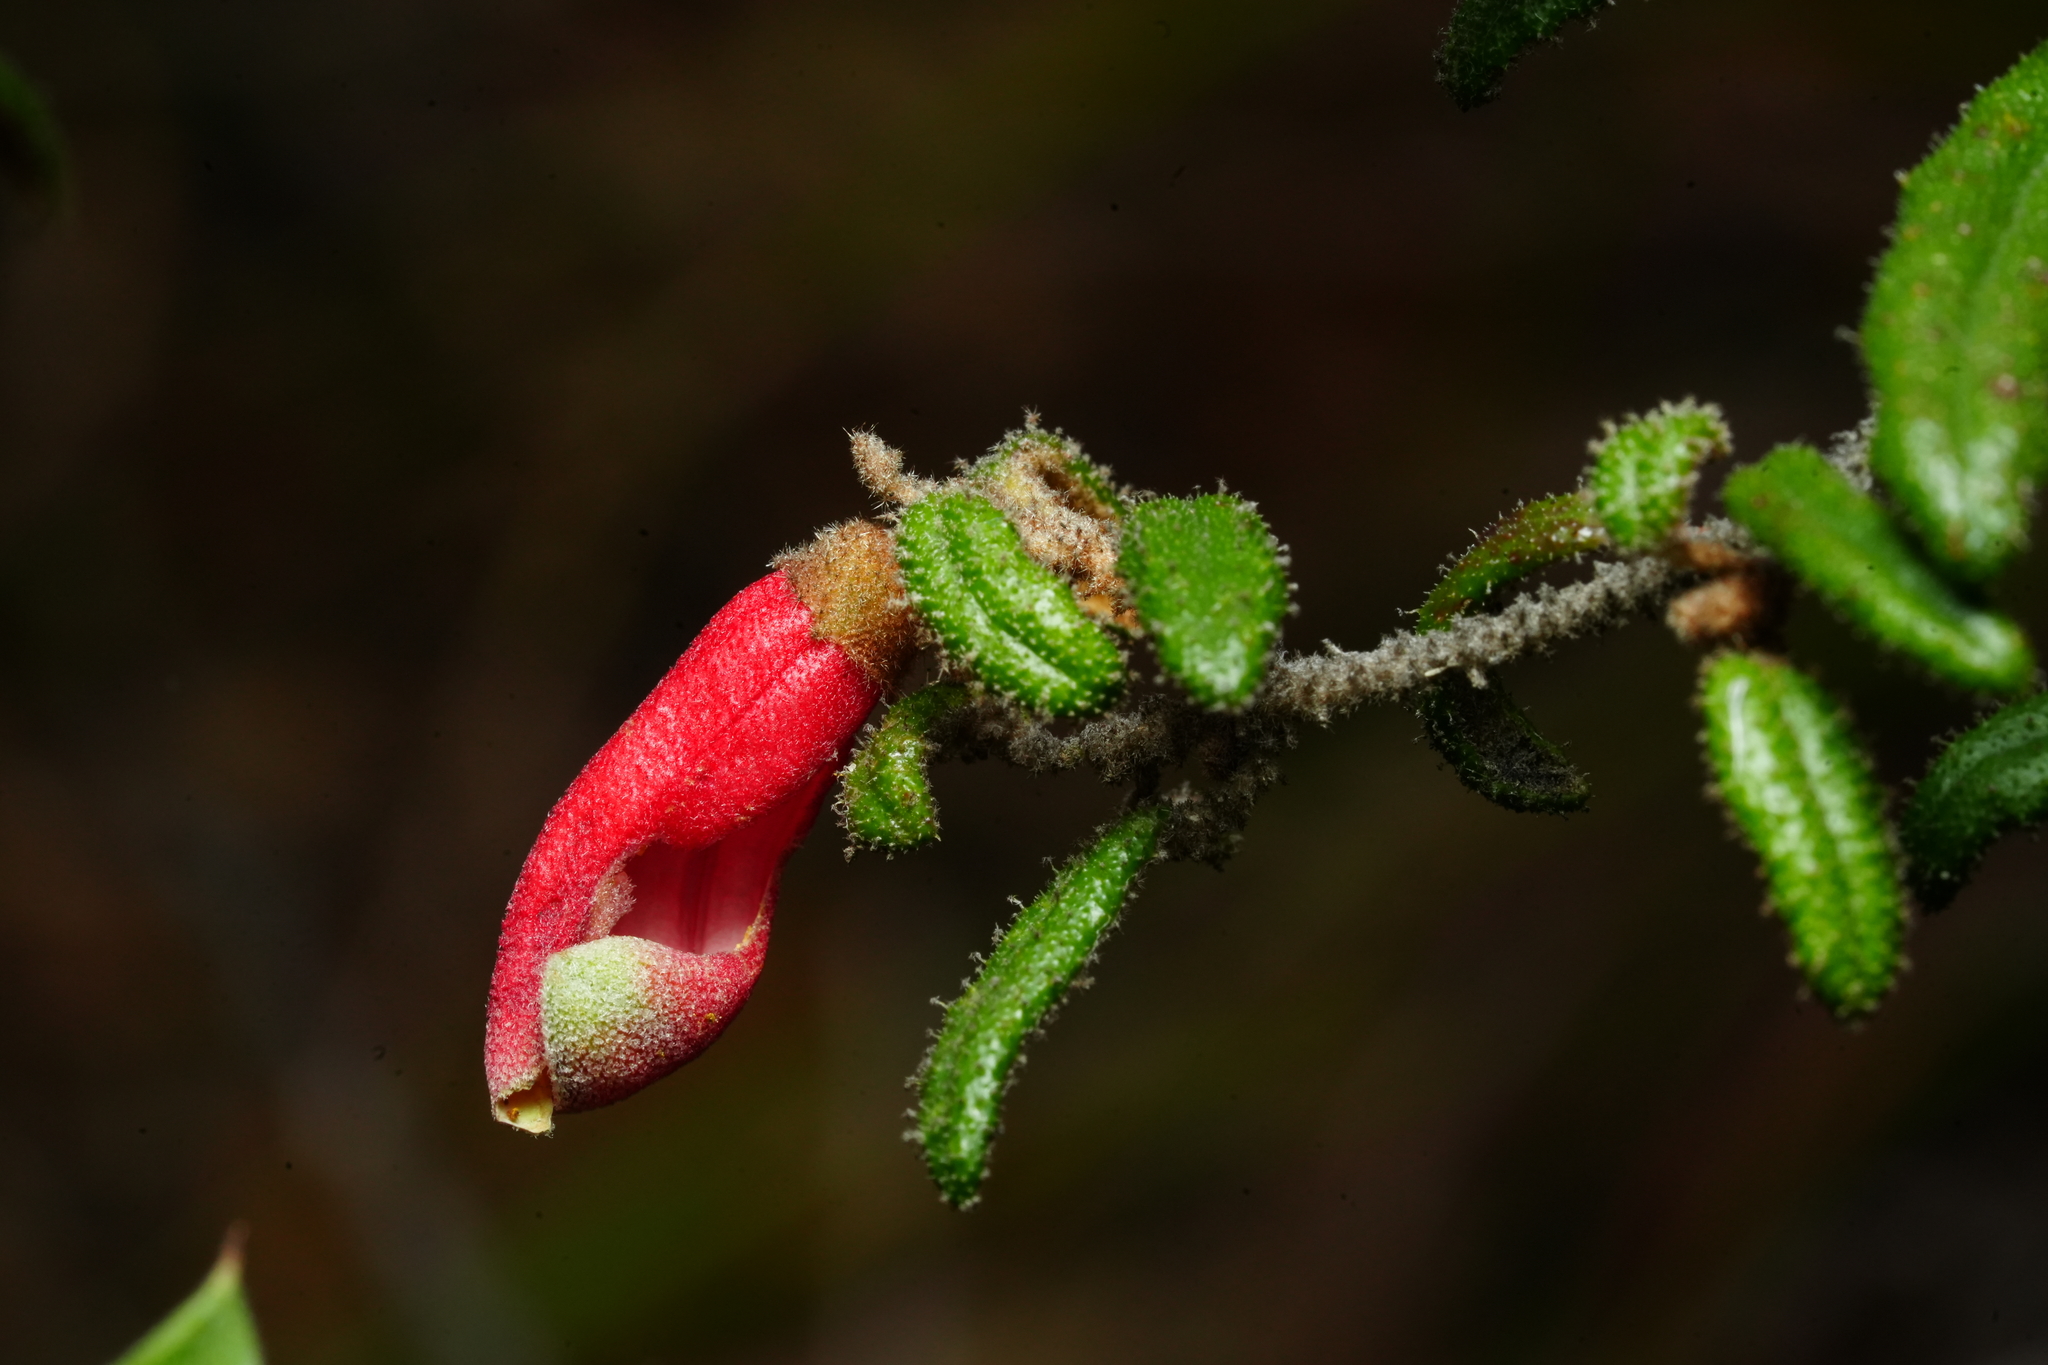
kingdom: Plantae
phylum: Tracheophyta
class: Magnoliopsida
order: Sapindales
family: Rutaceae
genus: Correa
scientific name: Correa reflexa
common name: Common correa
